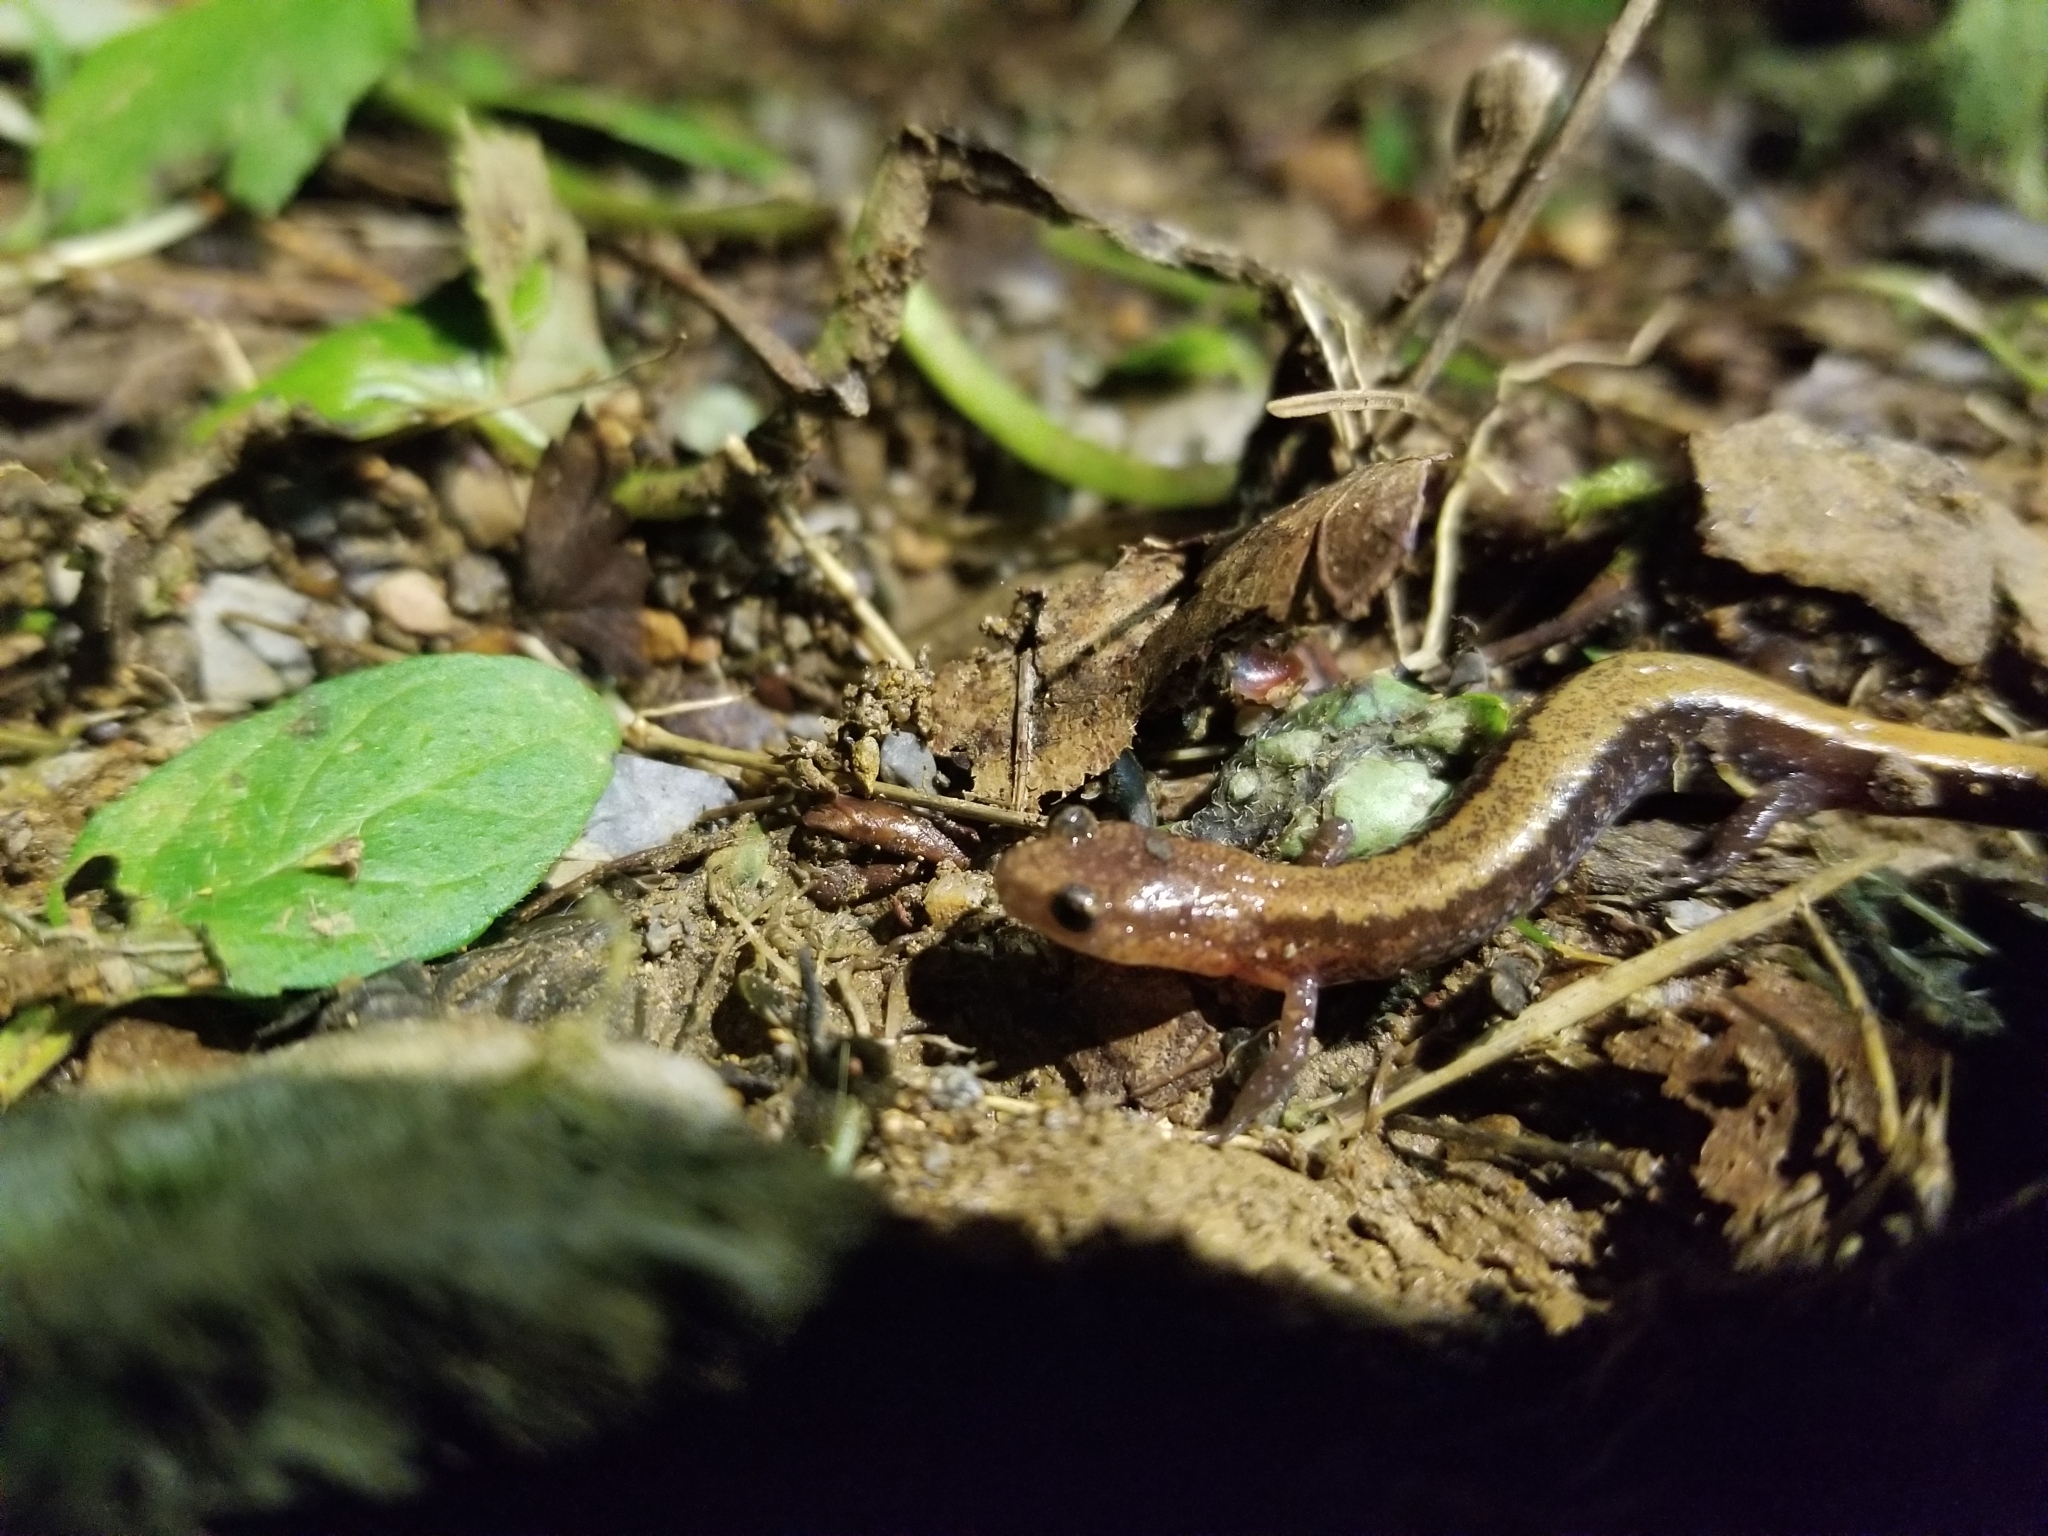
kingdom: Animalia
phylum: Chordata
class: Amphibia
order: Caudata
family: Plethodontidae
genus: Plethodon
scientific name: Plethodon cinereus
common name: Redback salamander
